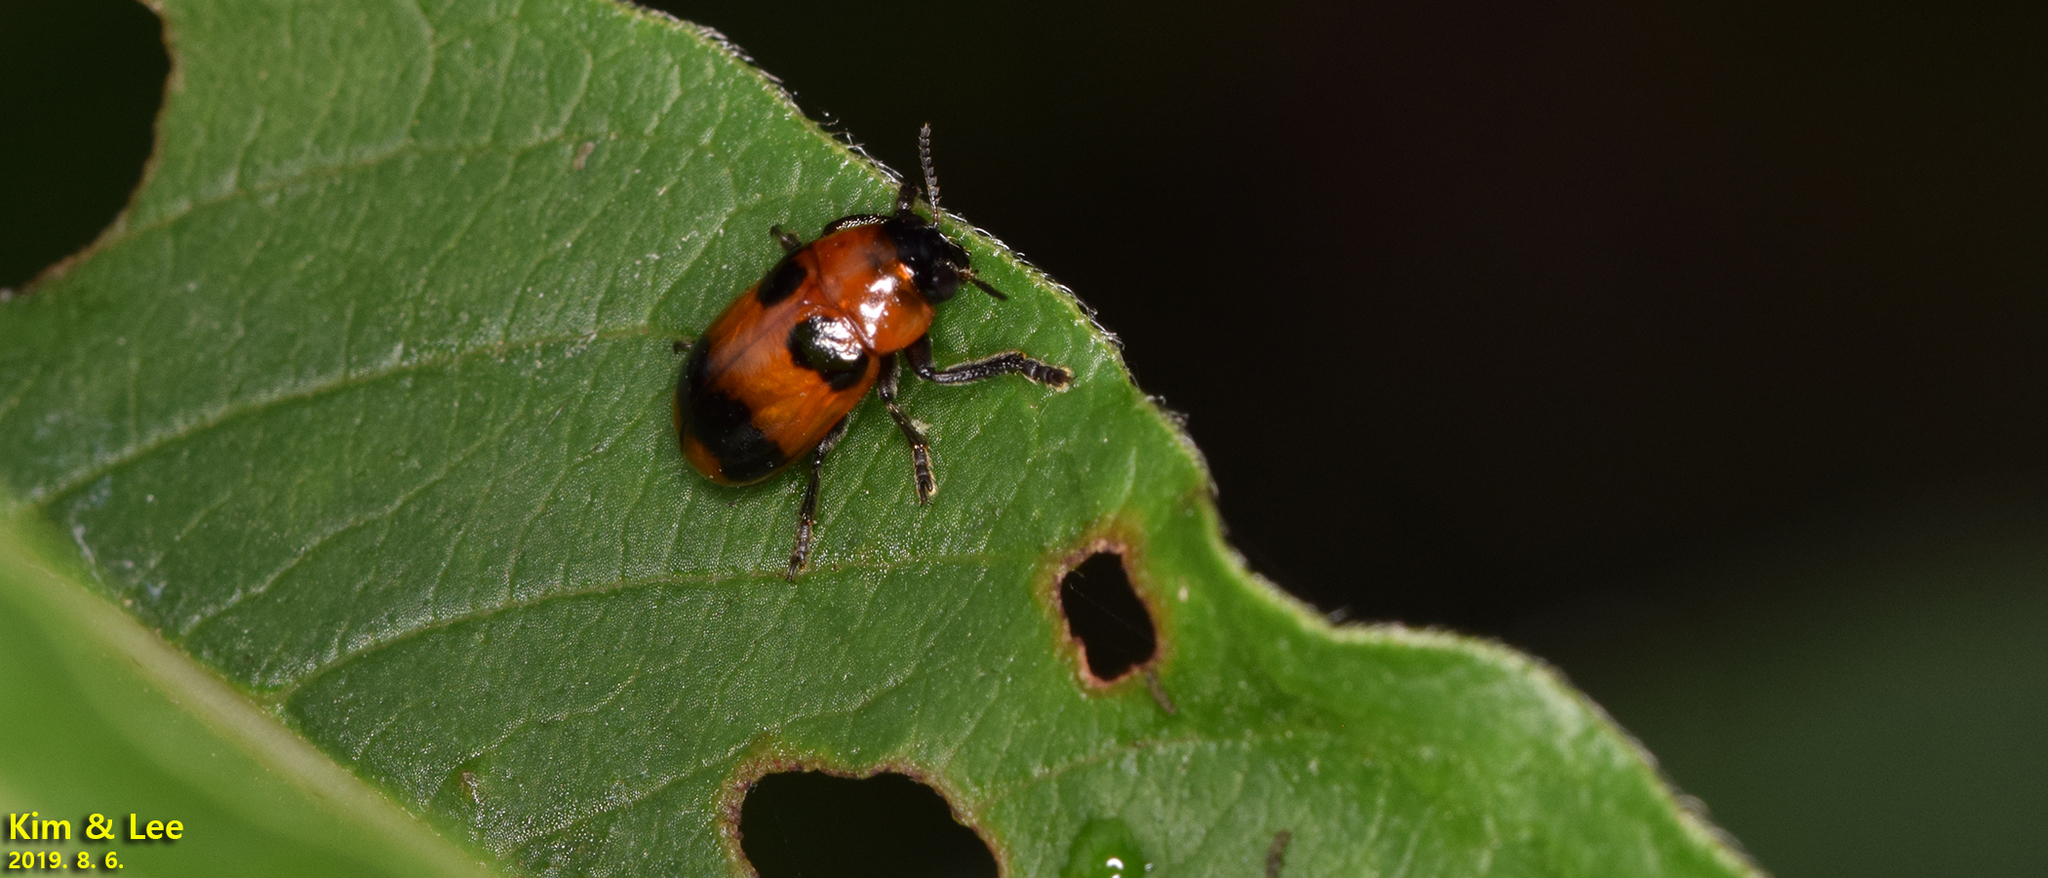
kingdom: Animalia
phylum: Arthropoda
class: Insecta
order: Coleoptera
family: Chrysomelidae
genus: Physosmaragdina
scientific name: Physosmaragdina nigrifrons
